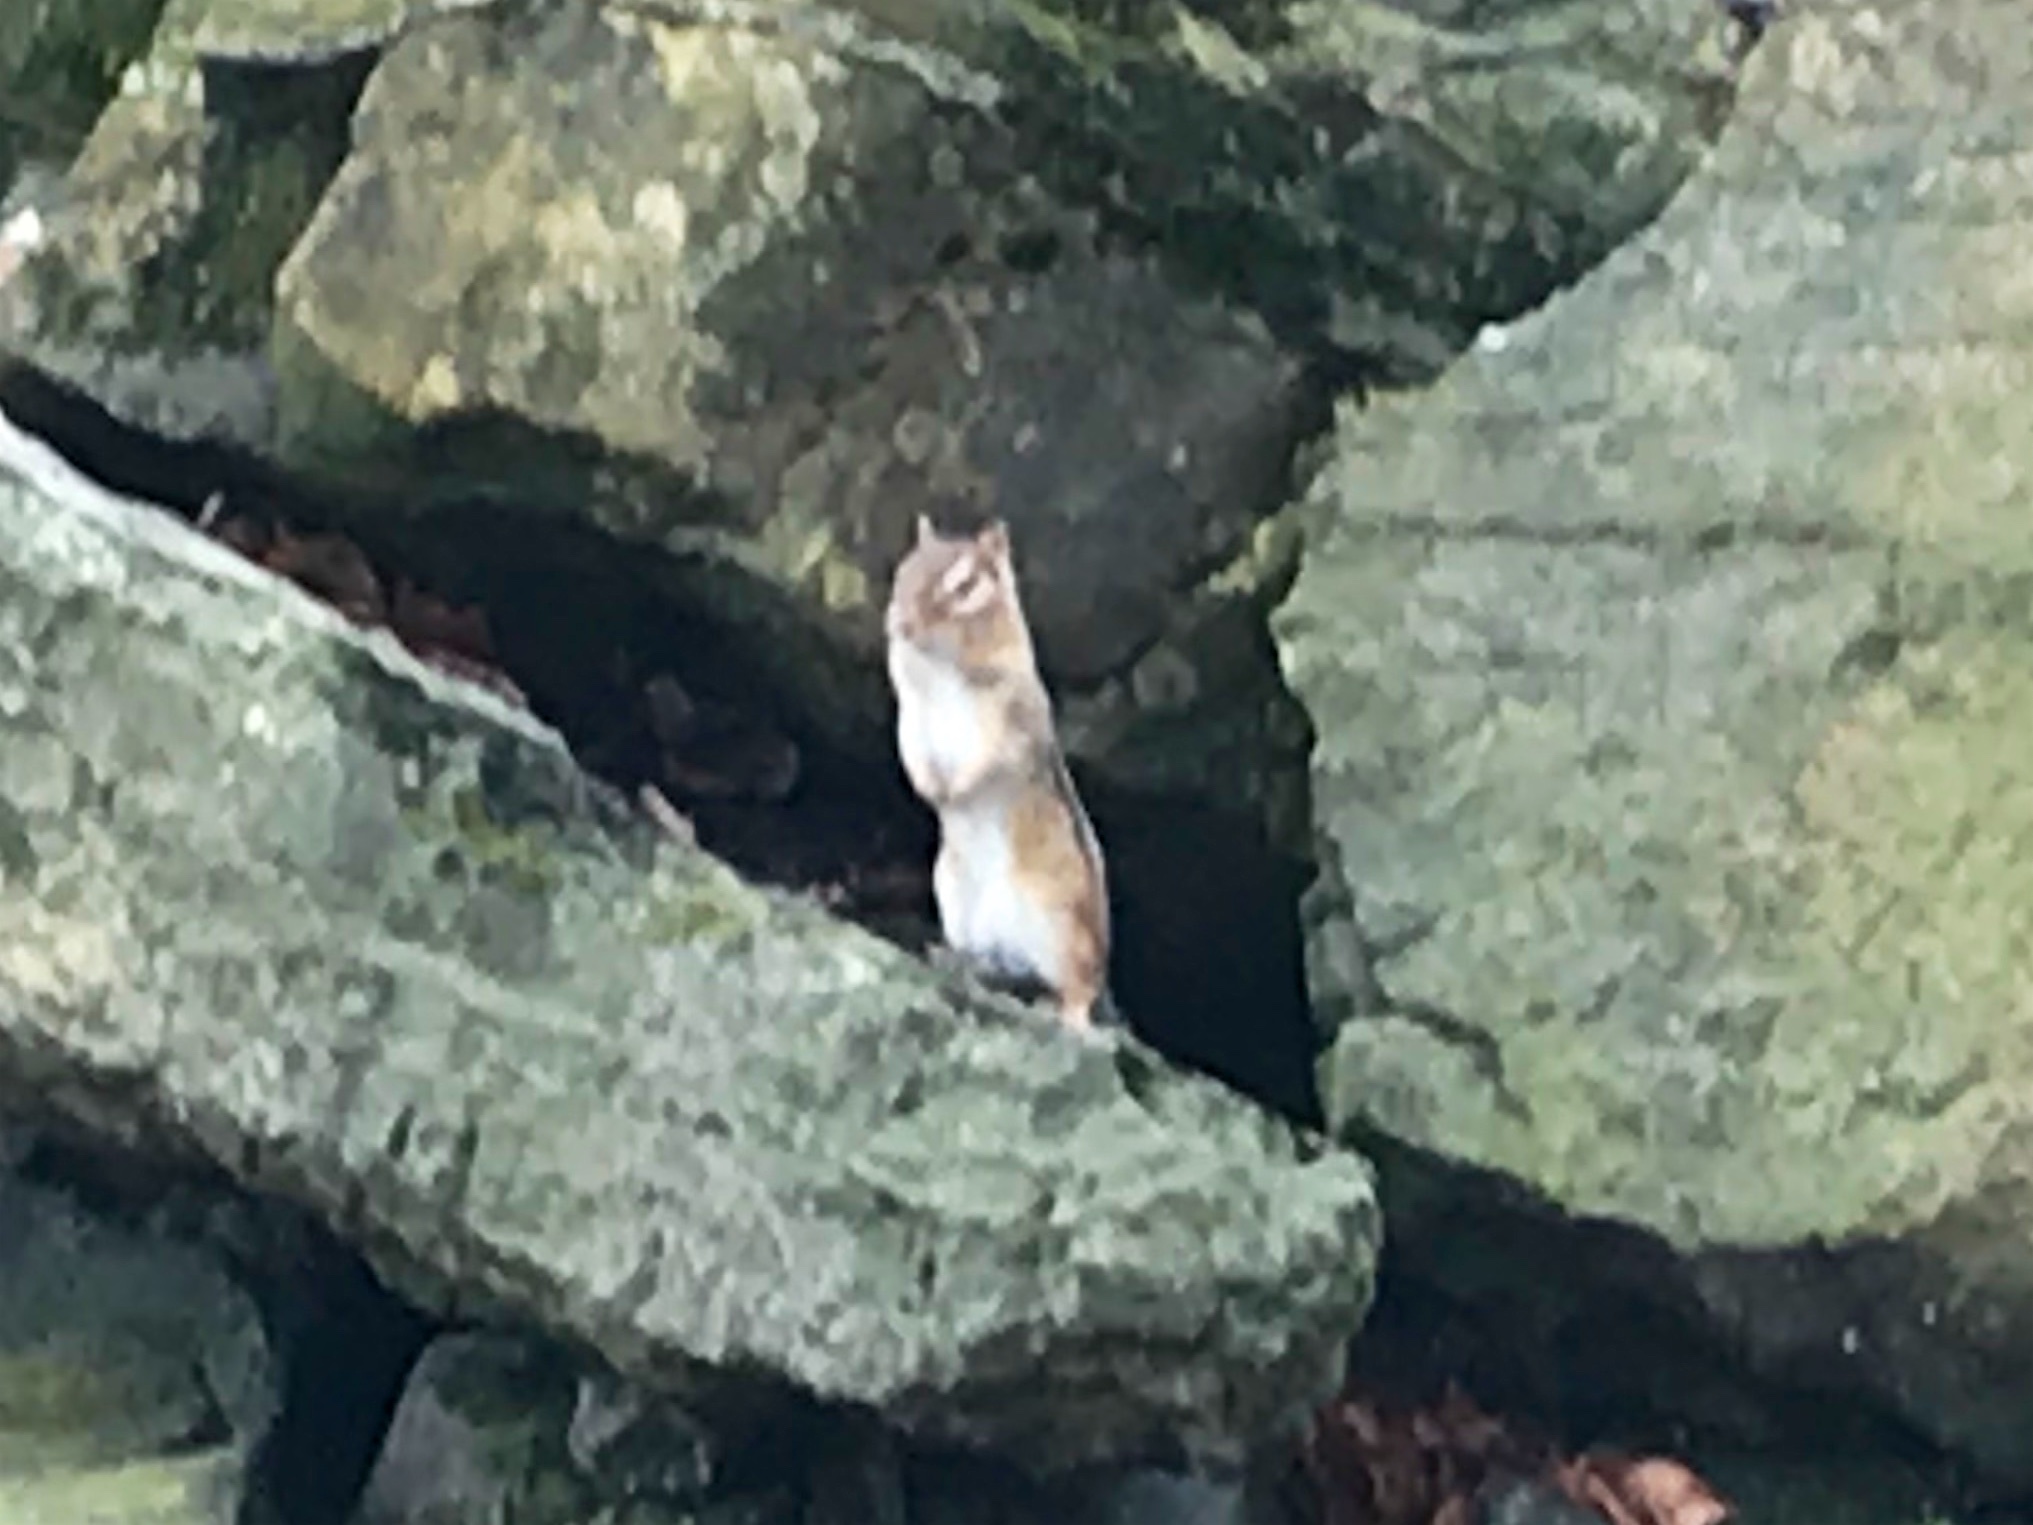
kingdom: Animalia
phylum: Chordata
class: Mammalia
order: Rodentia
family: Sciuridae
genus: Tamias
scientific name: Tamias striatus
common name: Eastern chipmunk
